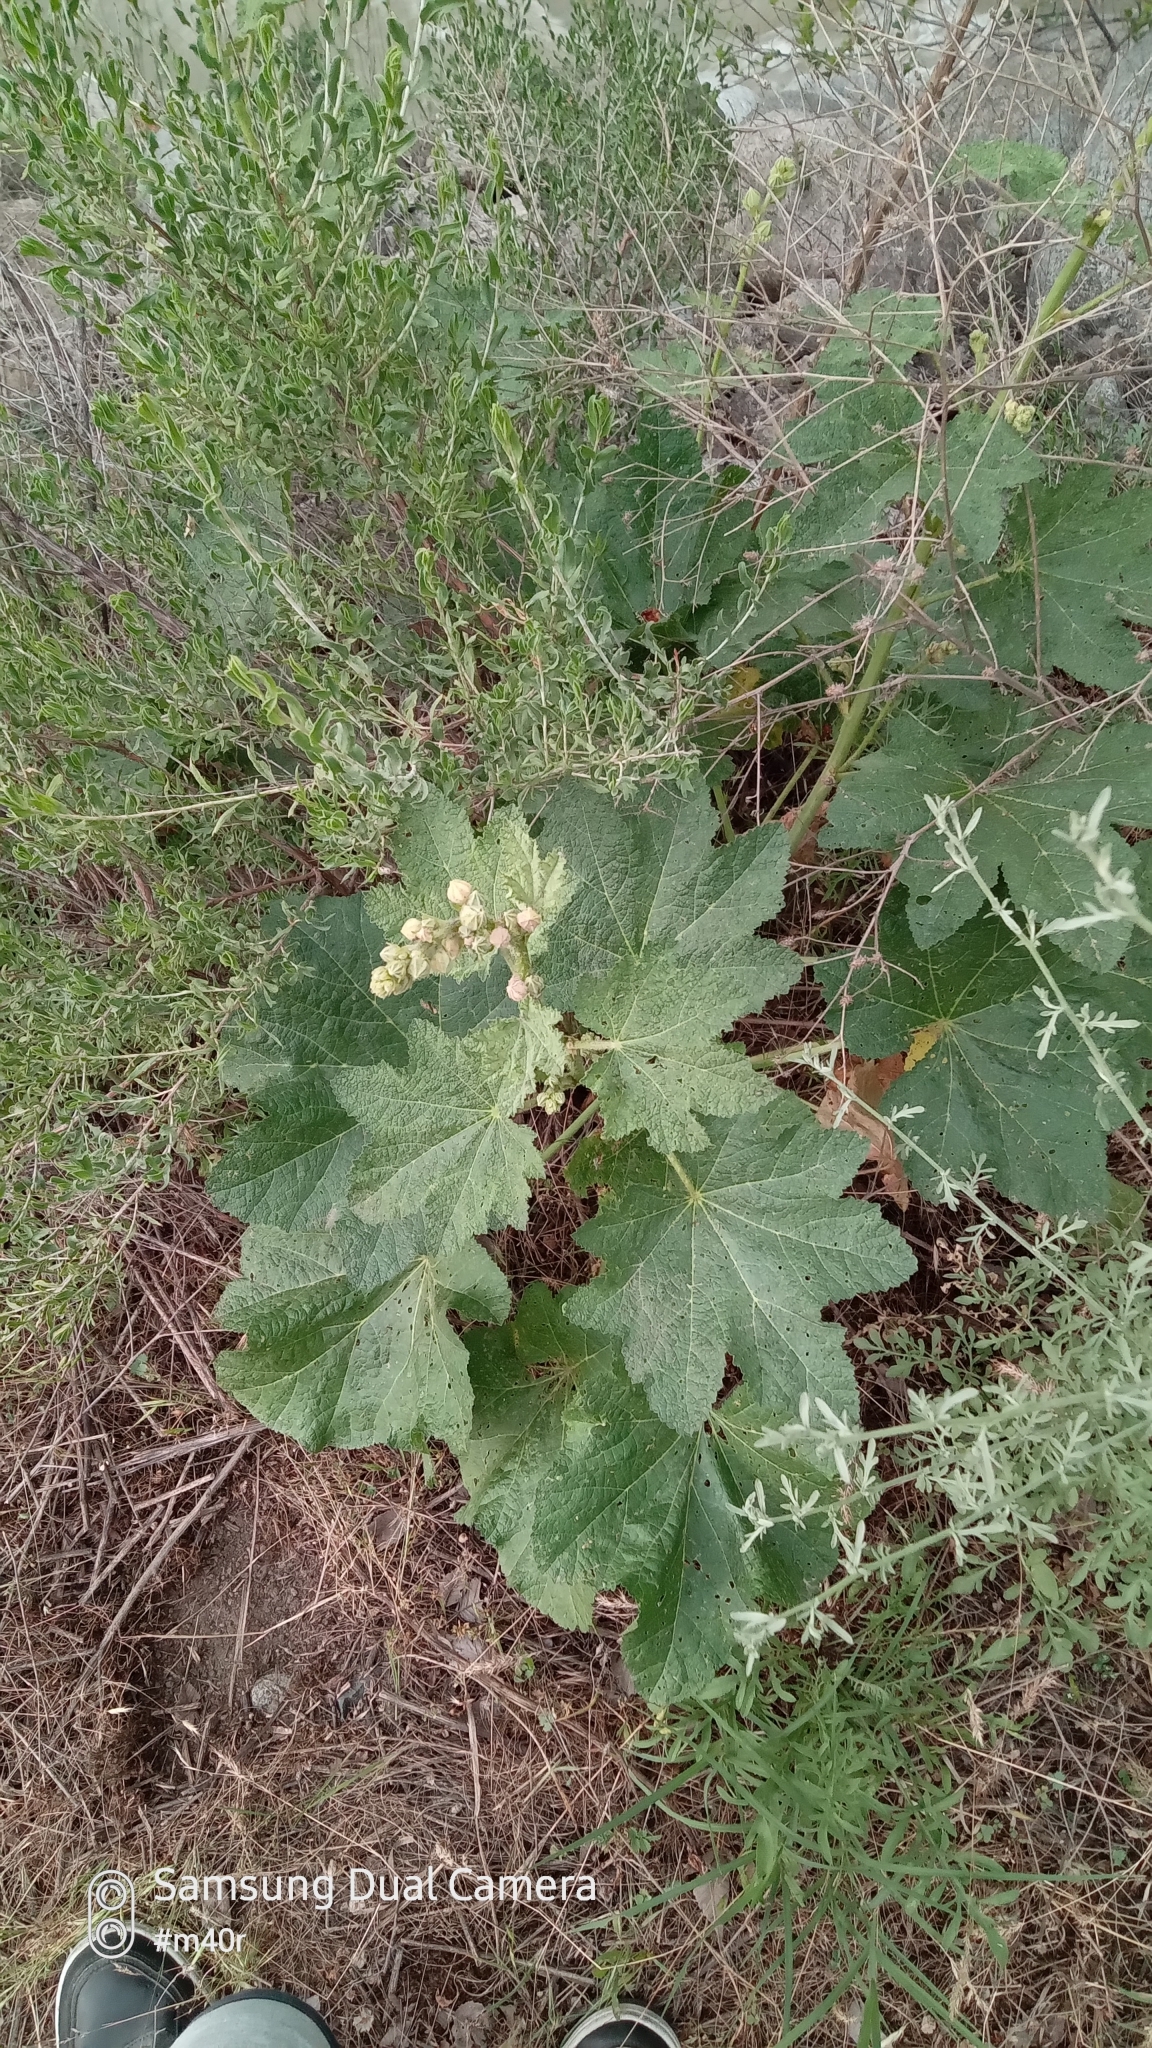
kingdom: Plantae
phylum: Tracheophyta
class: Magnoliopsida
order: Malvales
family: Malvaceae
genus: Alcea
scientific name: Alcea nudiflora
